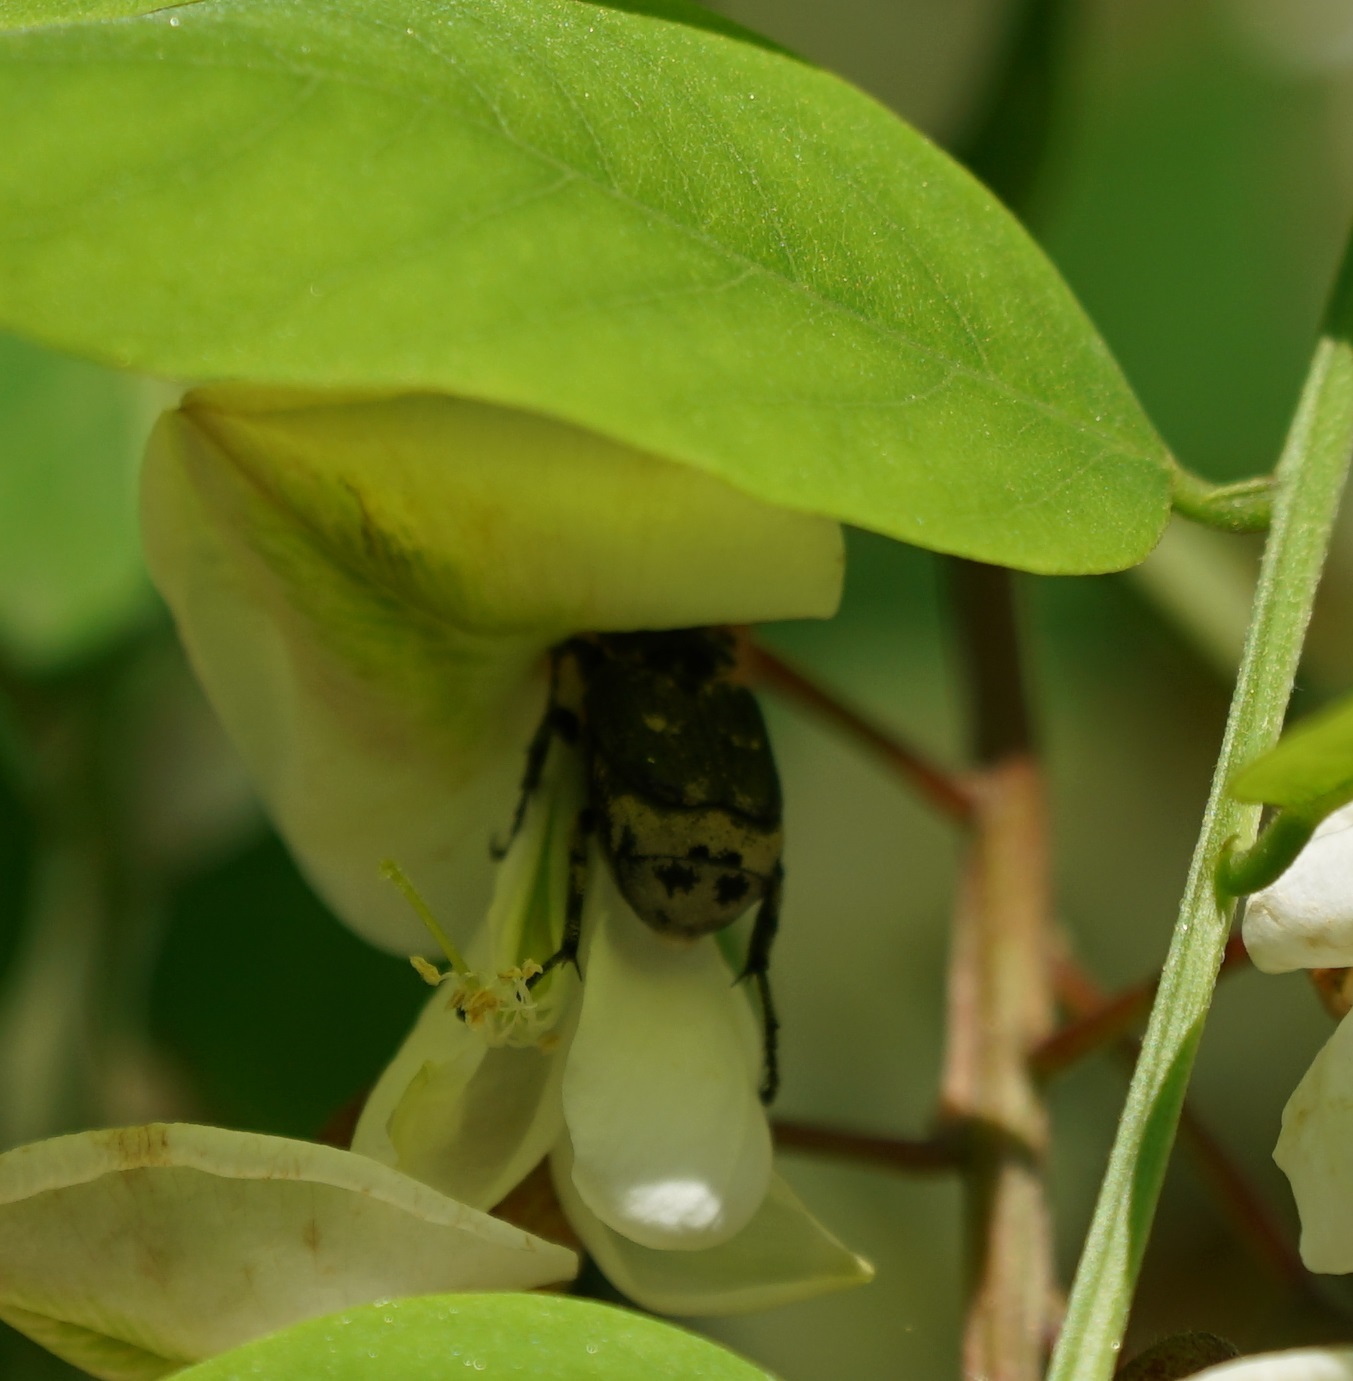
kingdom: Animalia
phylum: Arthropoda
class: Insecta
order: Coleoptera
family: Scarabaeidae
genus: Valgus
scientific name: Valgus hemipterus
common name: Bug flower chafer
